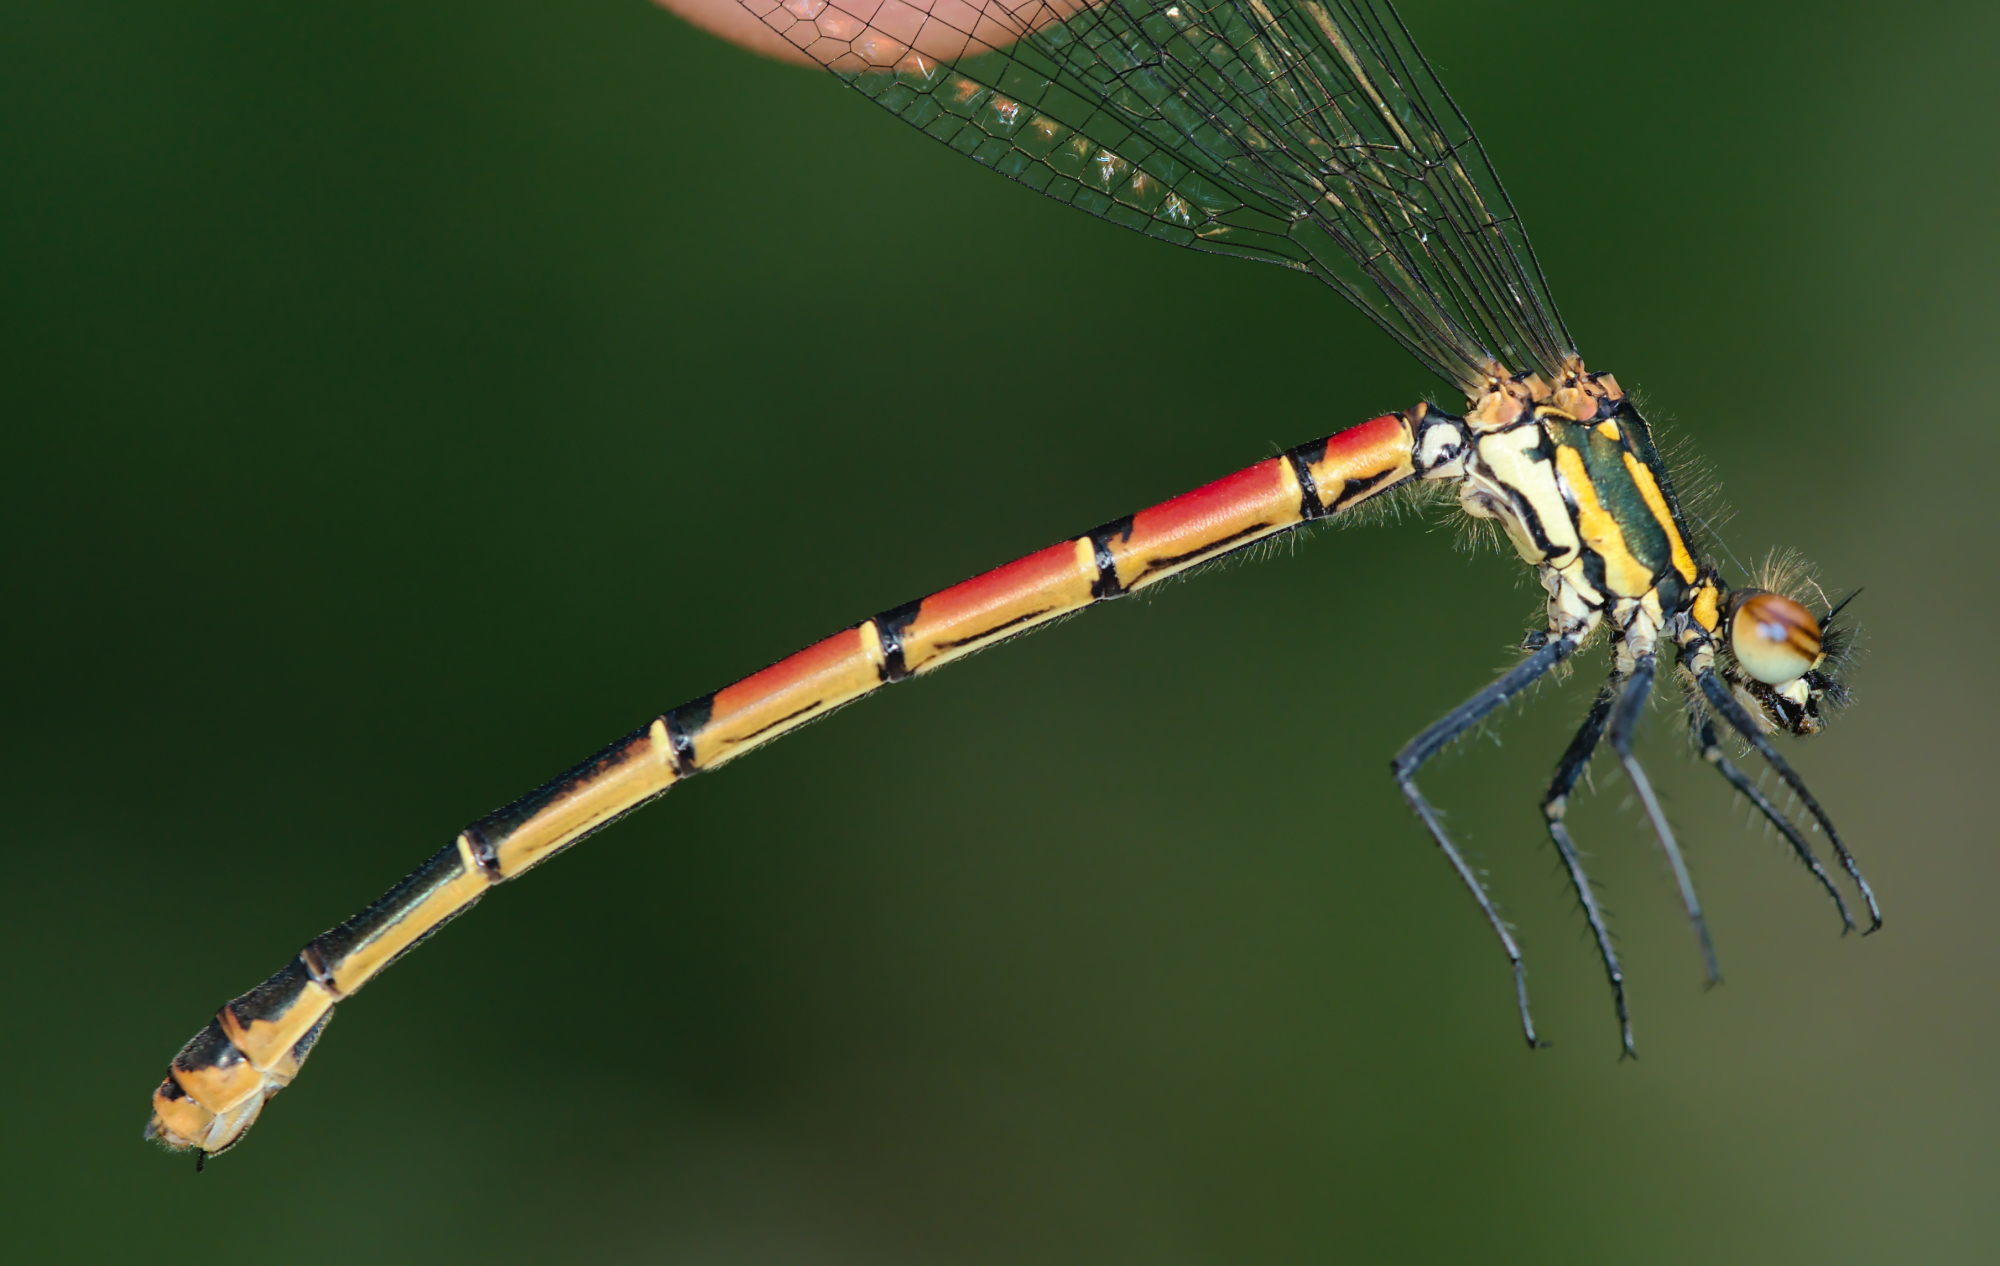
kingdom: Animalia
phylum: Arthropoda
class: Insecta
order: Odonata
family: Coenagrionidae
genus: Pyrrhosoma
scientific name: Pyrrhosoma nymphula
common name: Large red damsel
